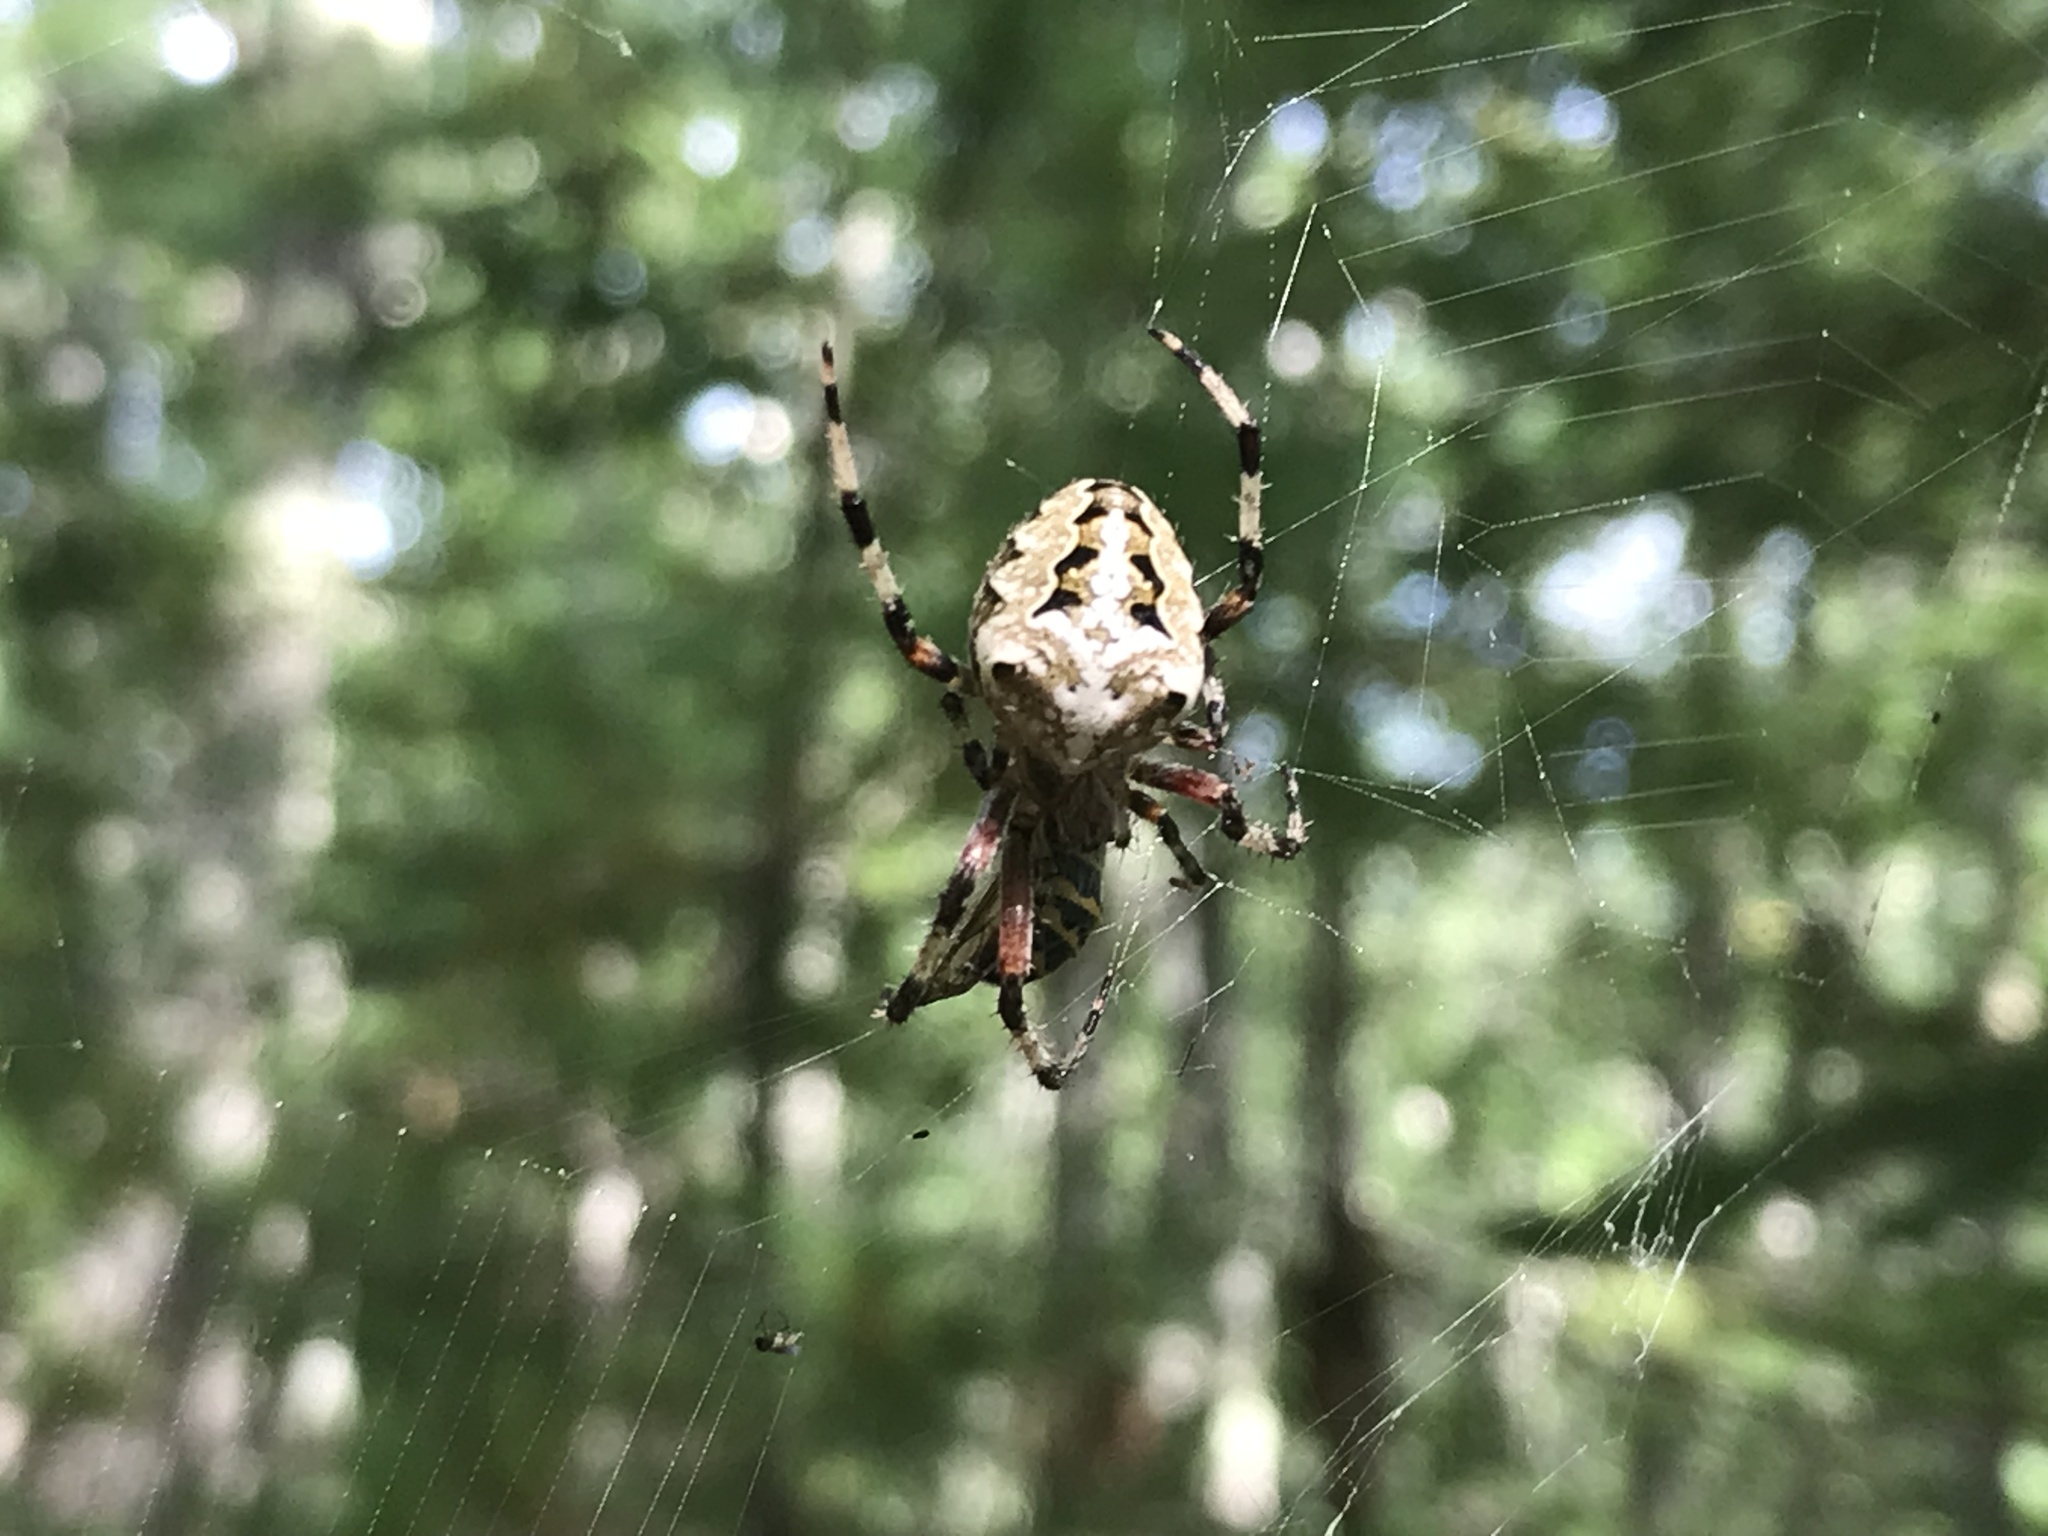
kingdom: Animalia
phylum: Arthropoda
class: Arachnida
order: Araneae
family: Araneidae
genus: Araneus
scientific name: Araneus nordmanni
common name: Nordmann's orbweaver
